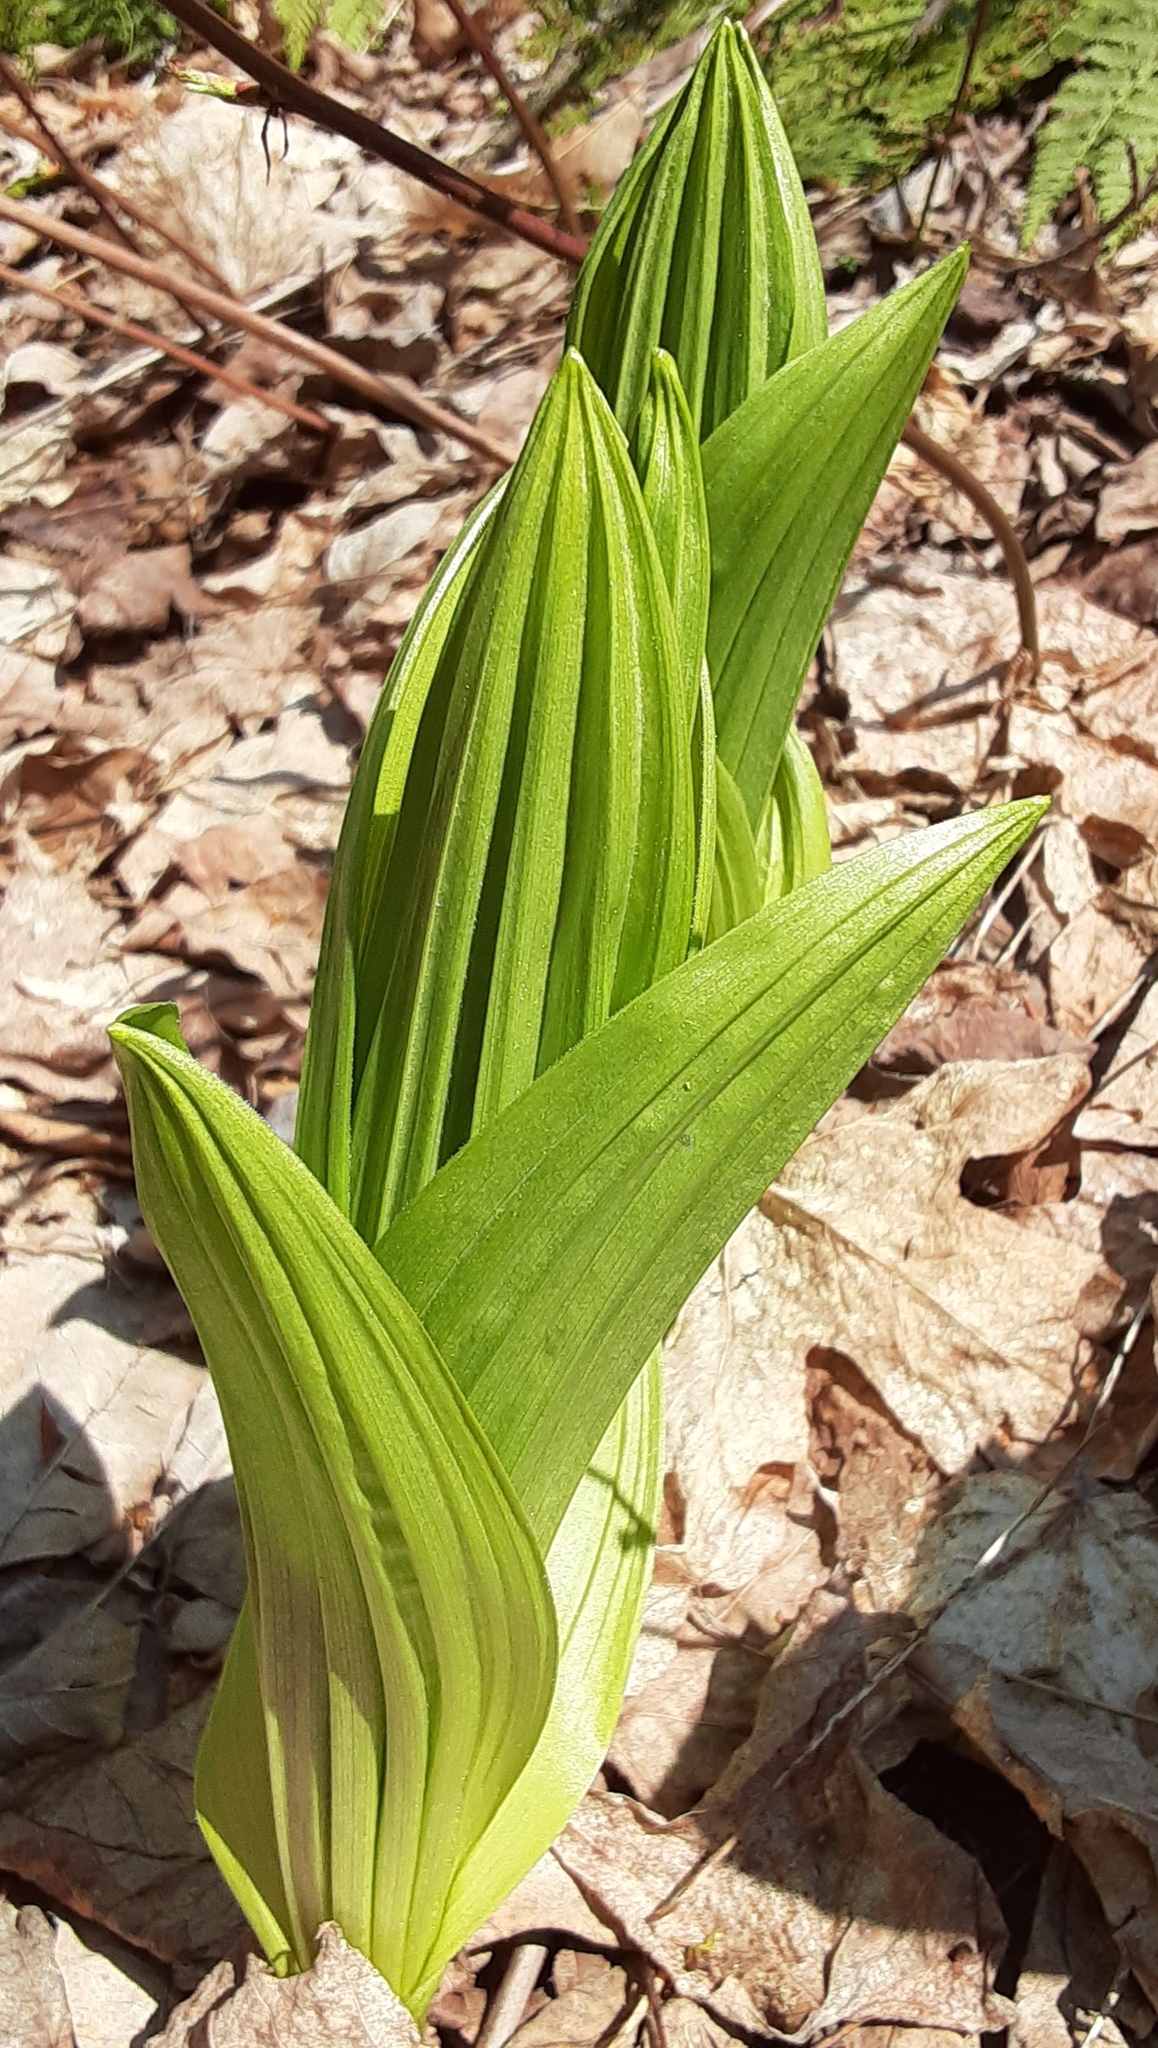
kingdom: Plantae
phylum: Tracheophyta
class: Liliopsida
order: Liliales
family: Melanthiaceae
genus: Veratrum
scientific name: Veratrum viride
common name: American false hellebore
